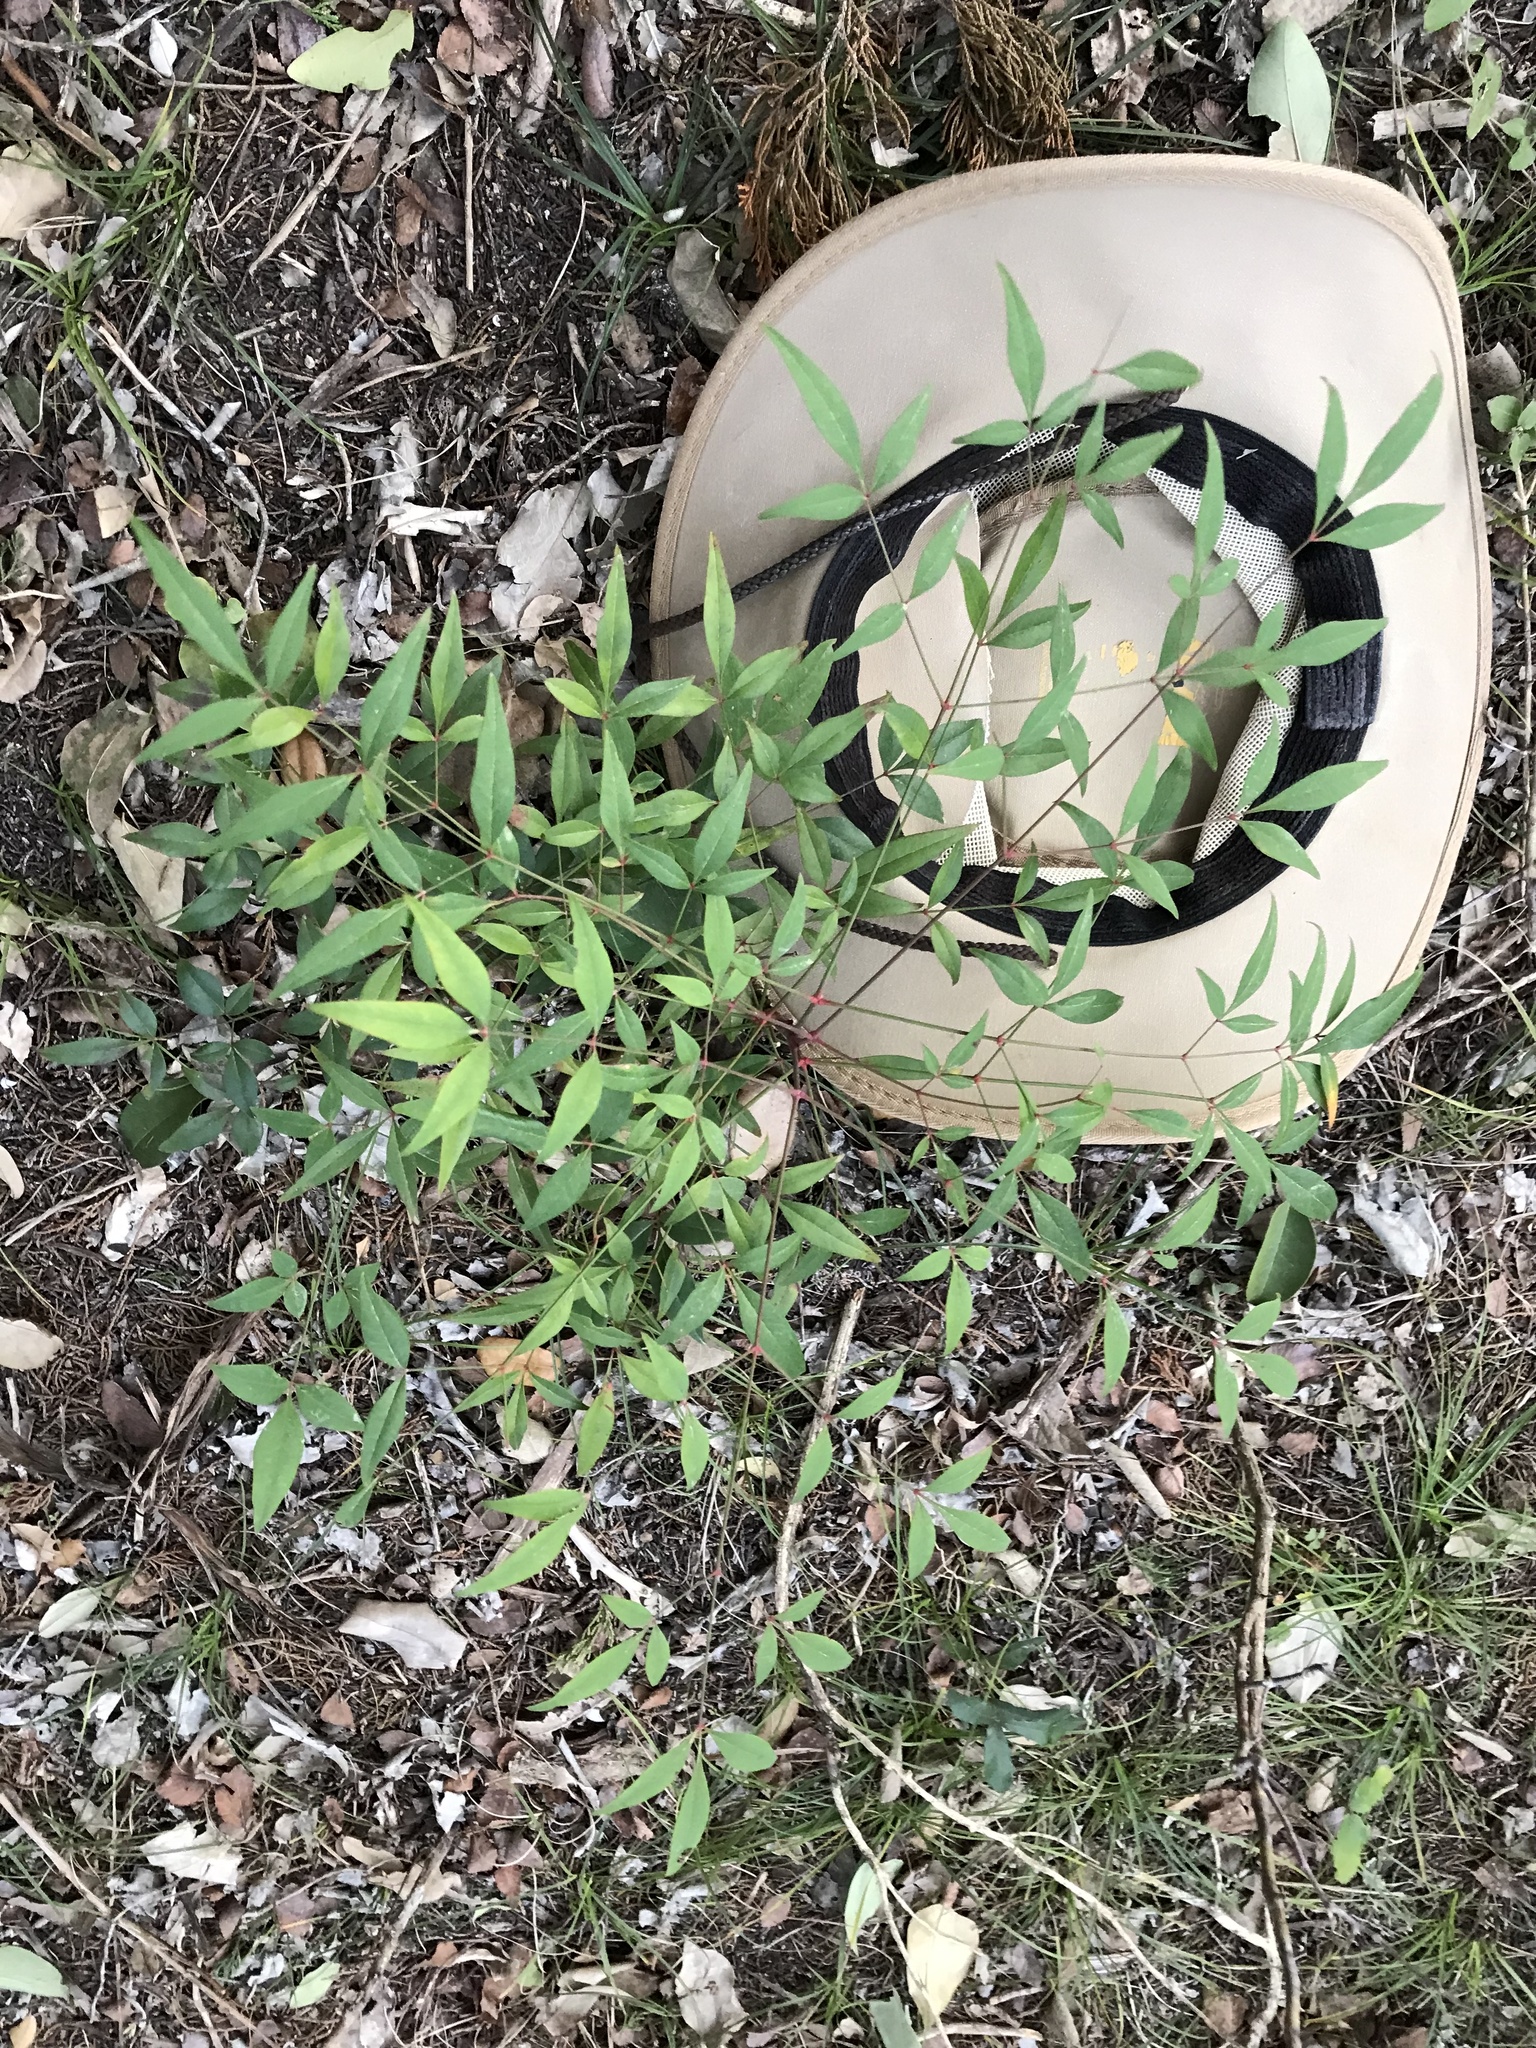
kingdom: Plantae
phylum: Tracheophyta
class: Magnoliopsida
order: Ranunculales
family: Berberidaceae
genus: Nandina
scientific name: Nandina domestica
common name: Sacred bamboo
